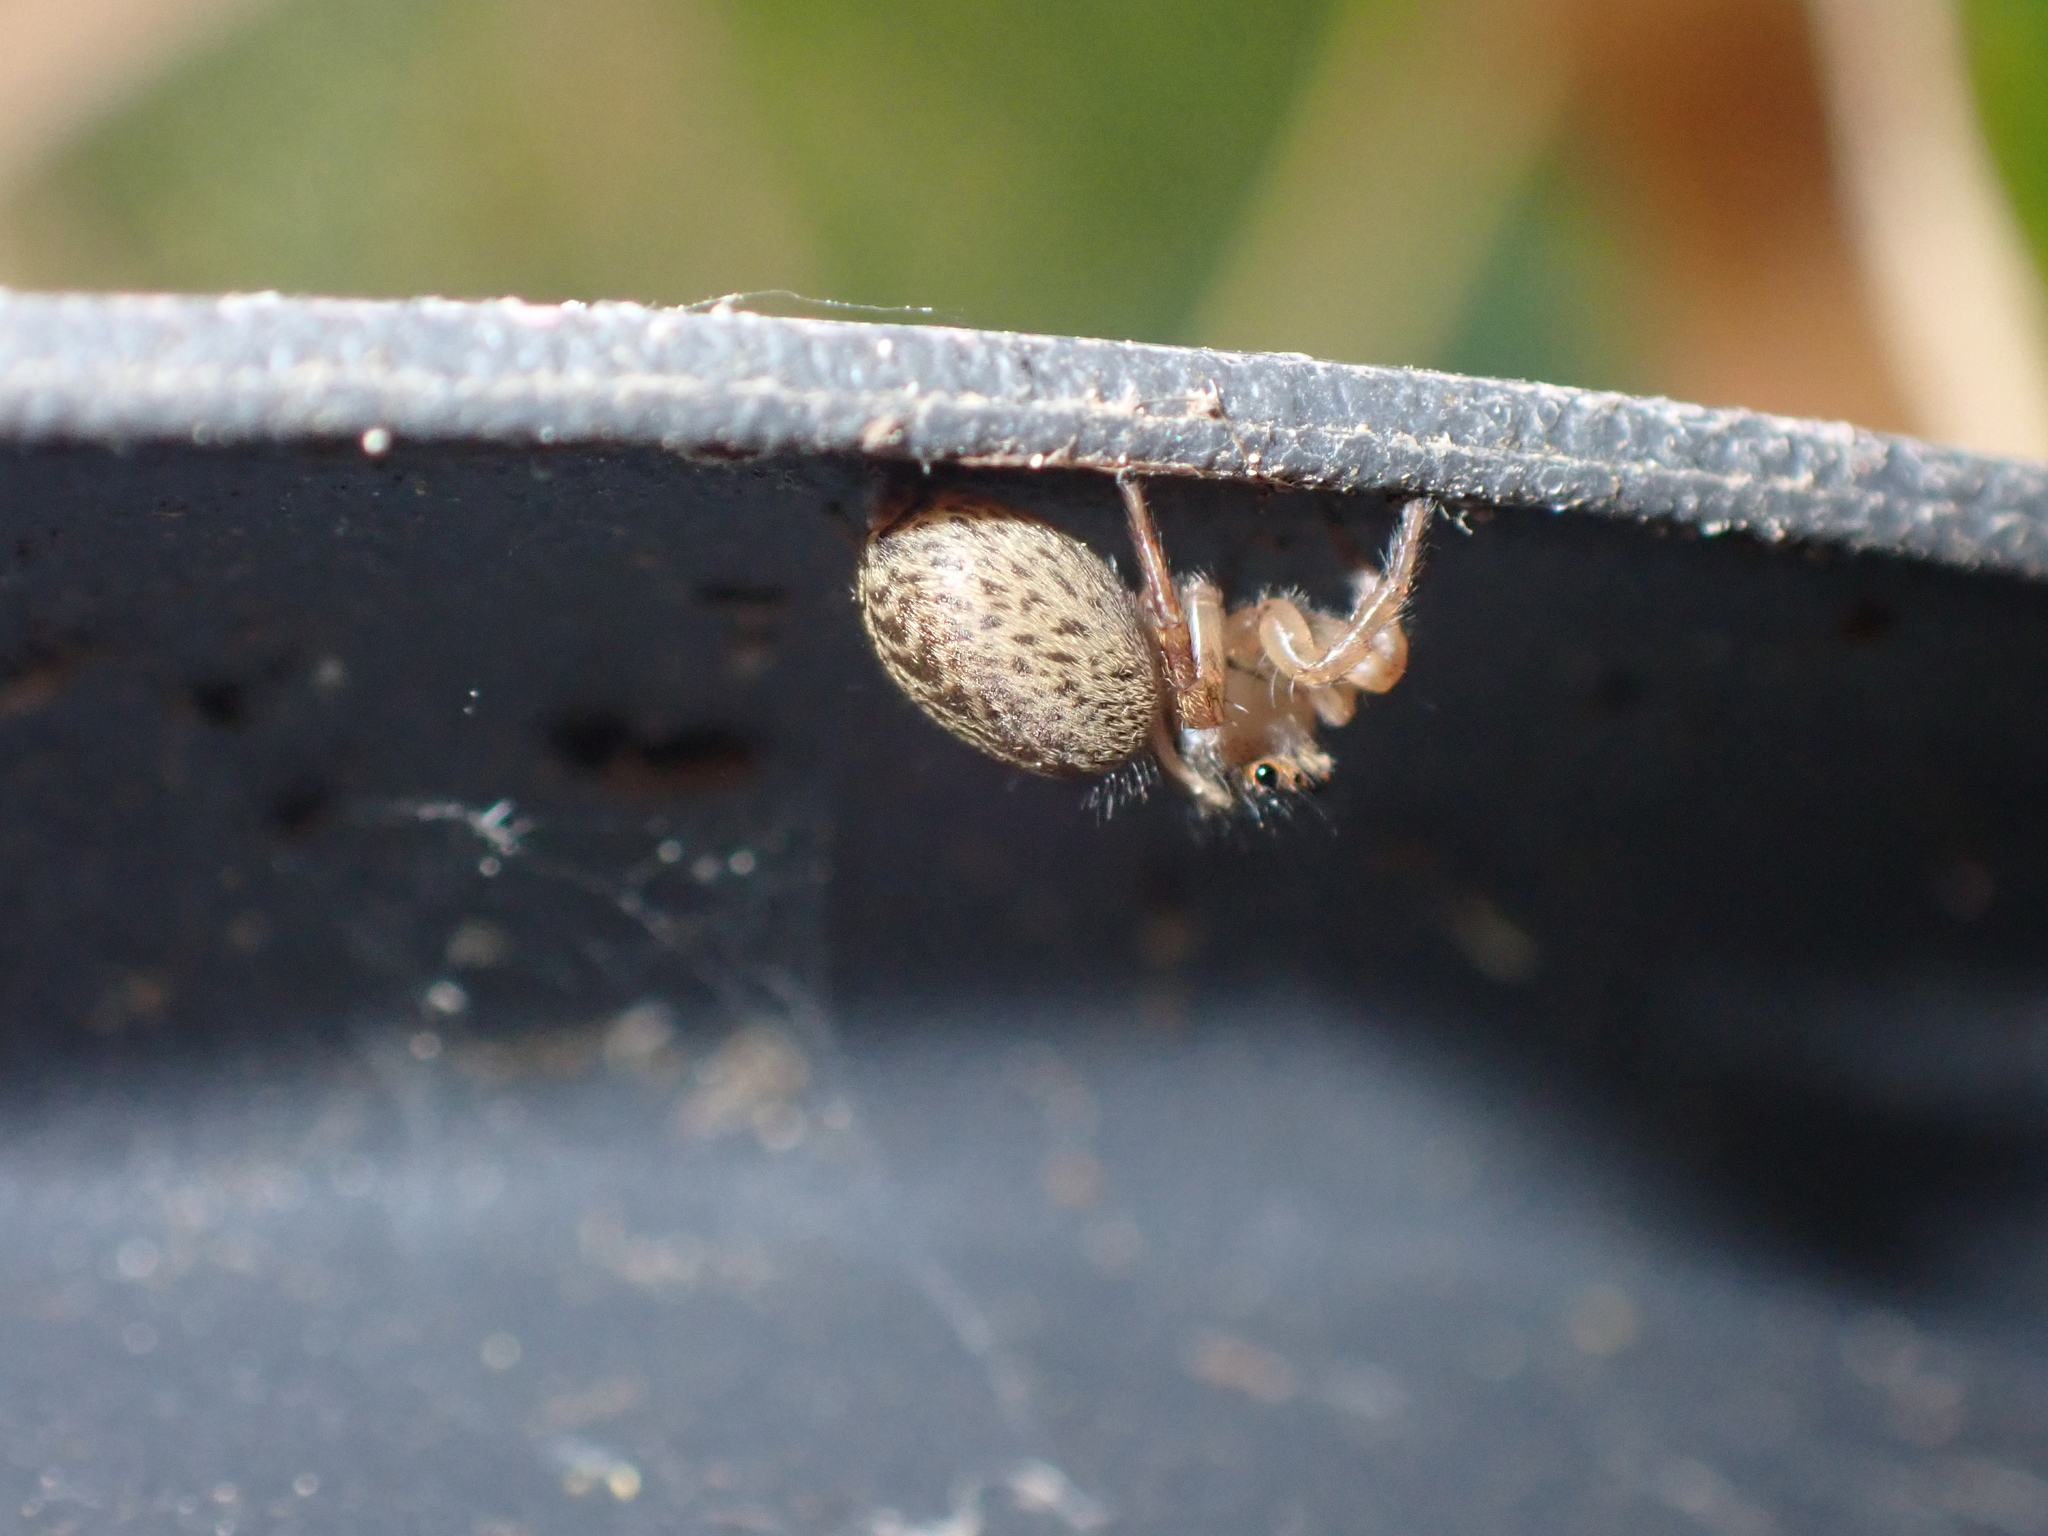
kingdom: Animalia
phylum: Arthropoda
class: Arachnida
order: Araneae
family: Salticidae
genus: Saitis
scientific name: Saitis barbipes
